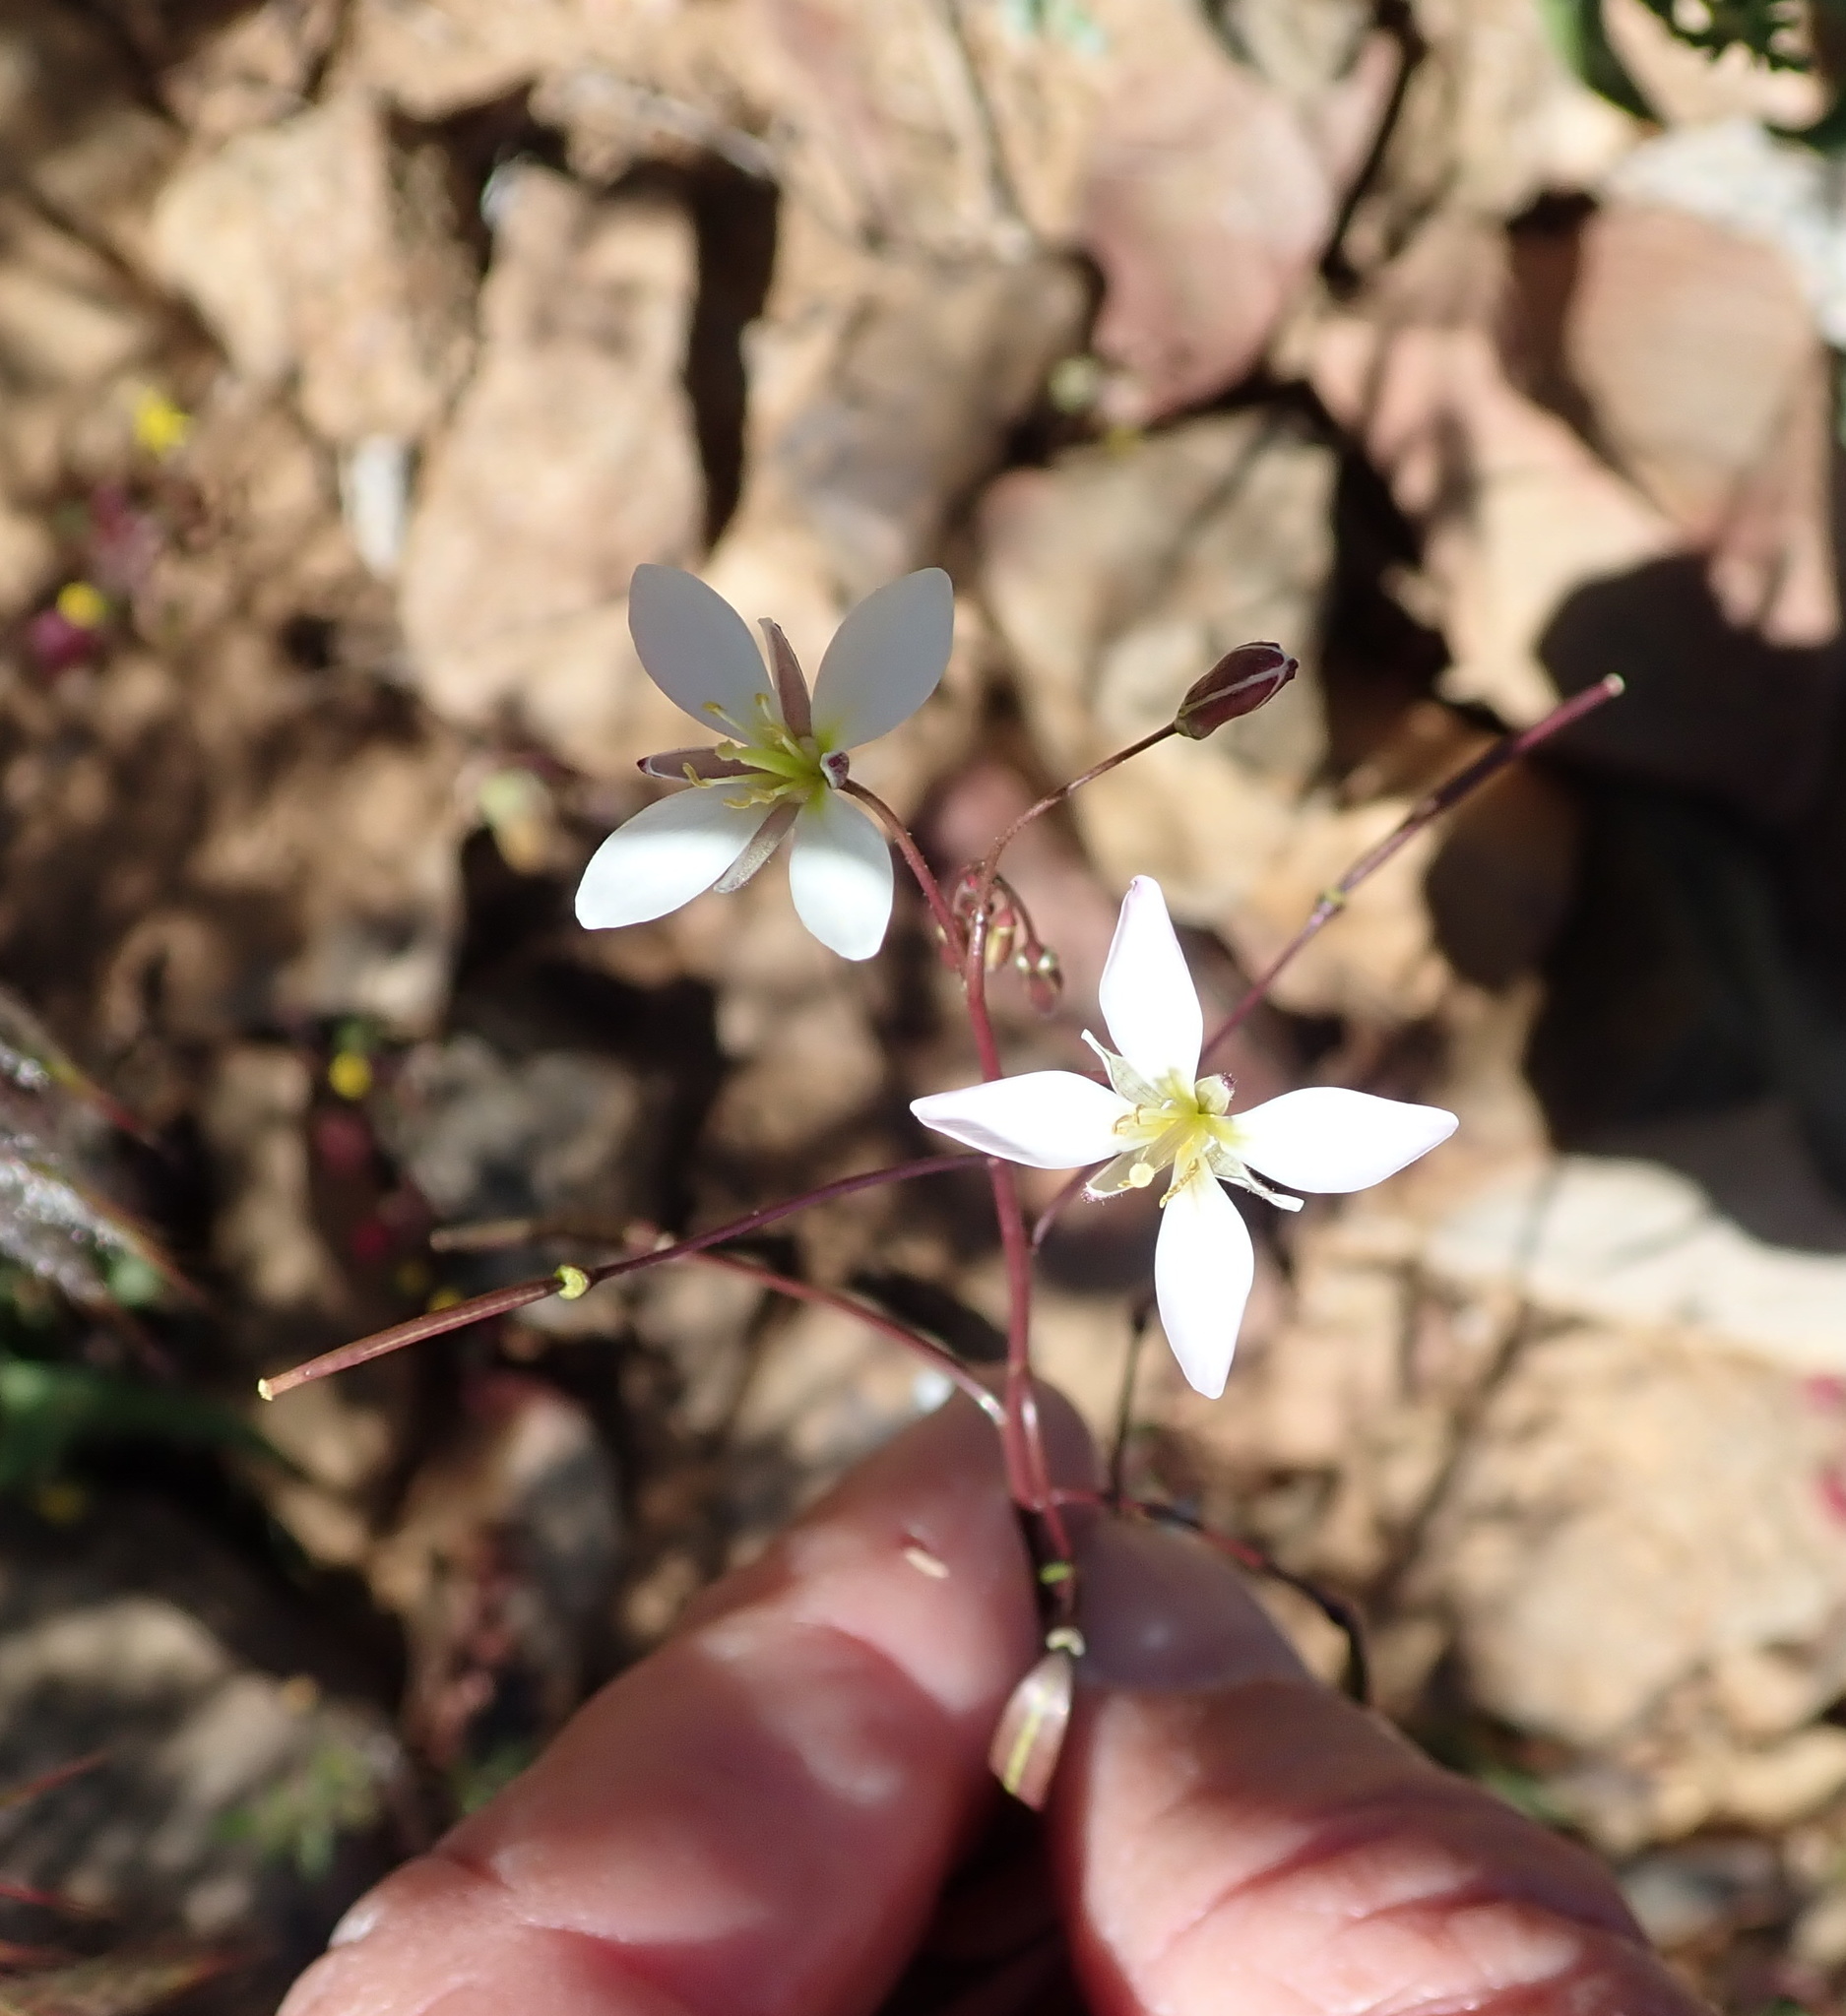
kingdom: Plantae
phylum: Tracheophyta
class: Magnoliopsida
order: Brassicales
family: Brassicaceae
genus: Heliophila
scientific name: Heliophila crithmifolia
